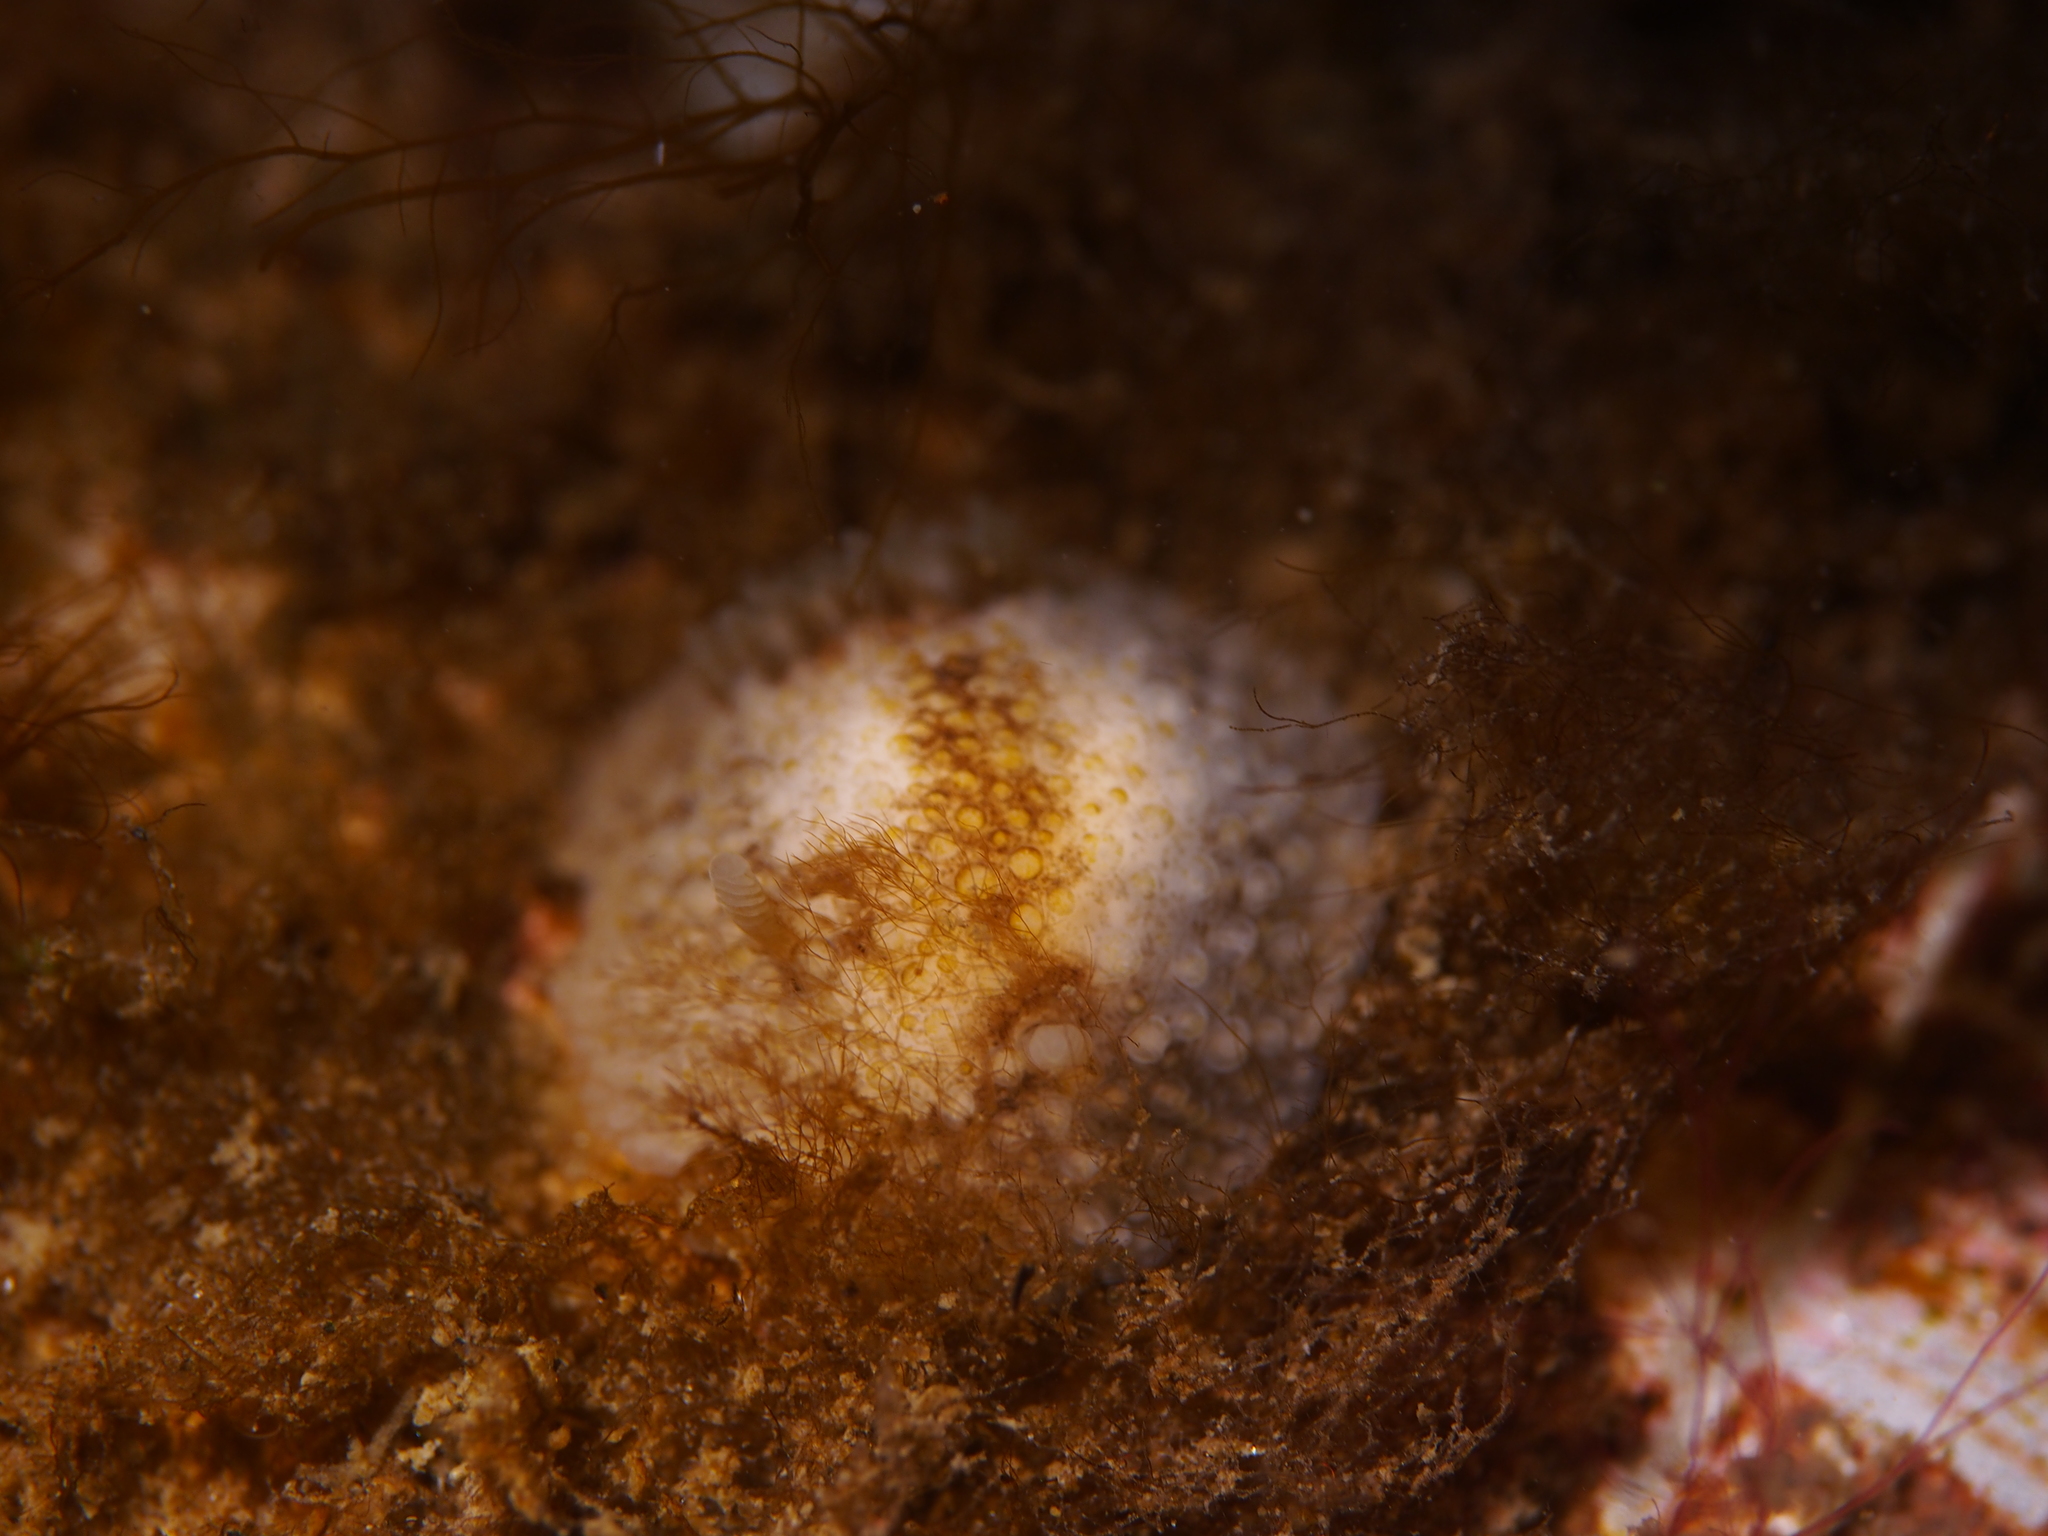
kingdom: Animalia
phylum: Mollusca
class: Gastropoda
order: Nudibranchia
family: Onchidorididae
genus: Onchidoris
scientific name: Onchidoris bilamellata
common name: Barnacle-eating onchidoris
